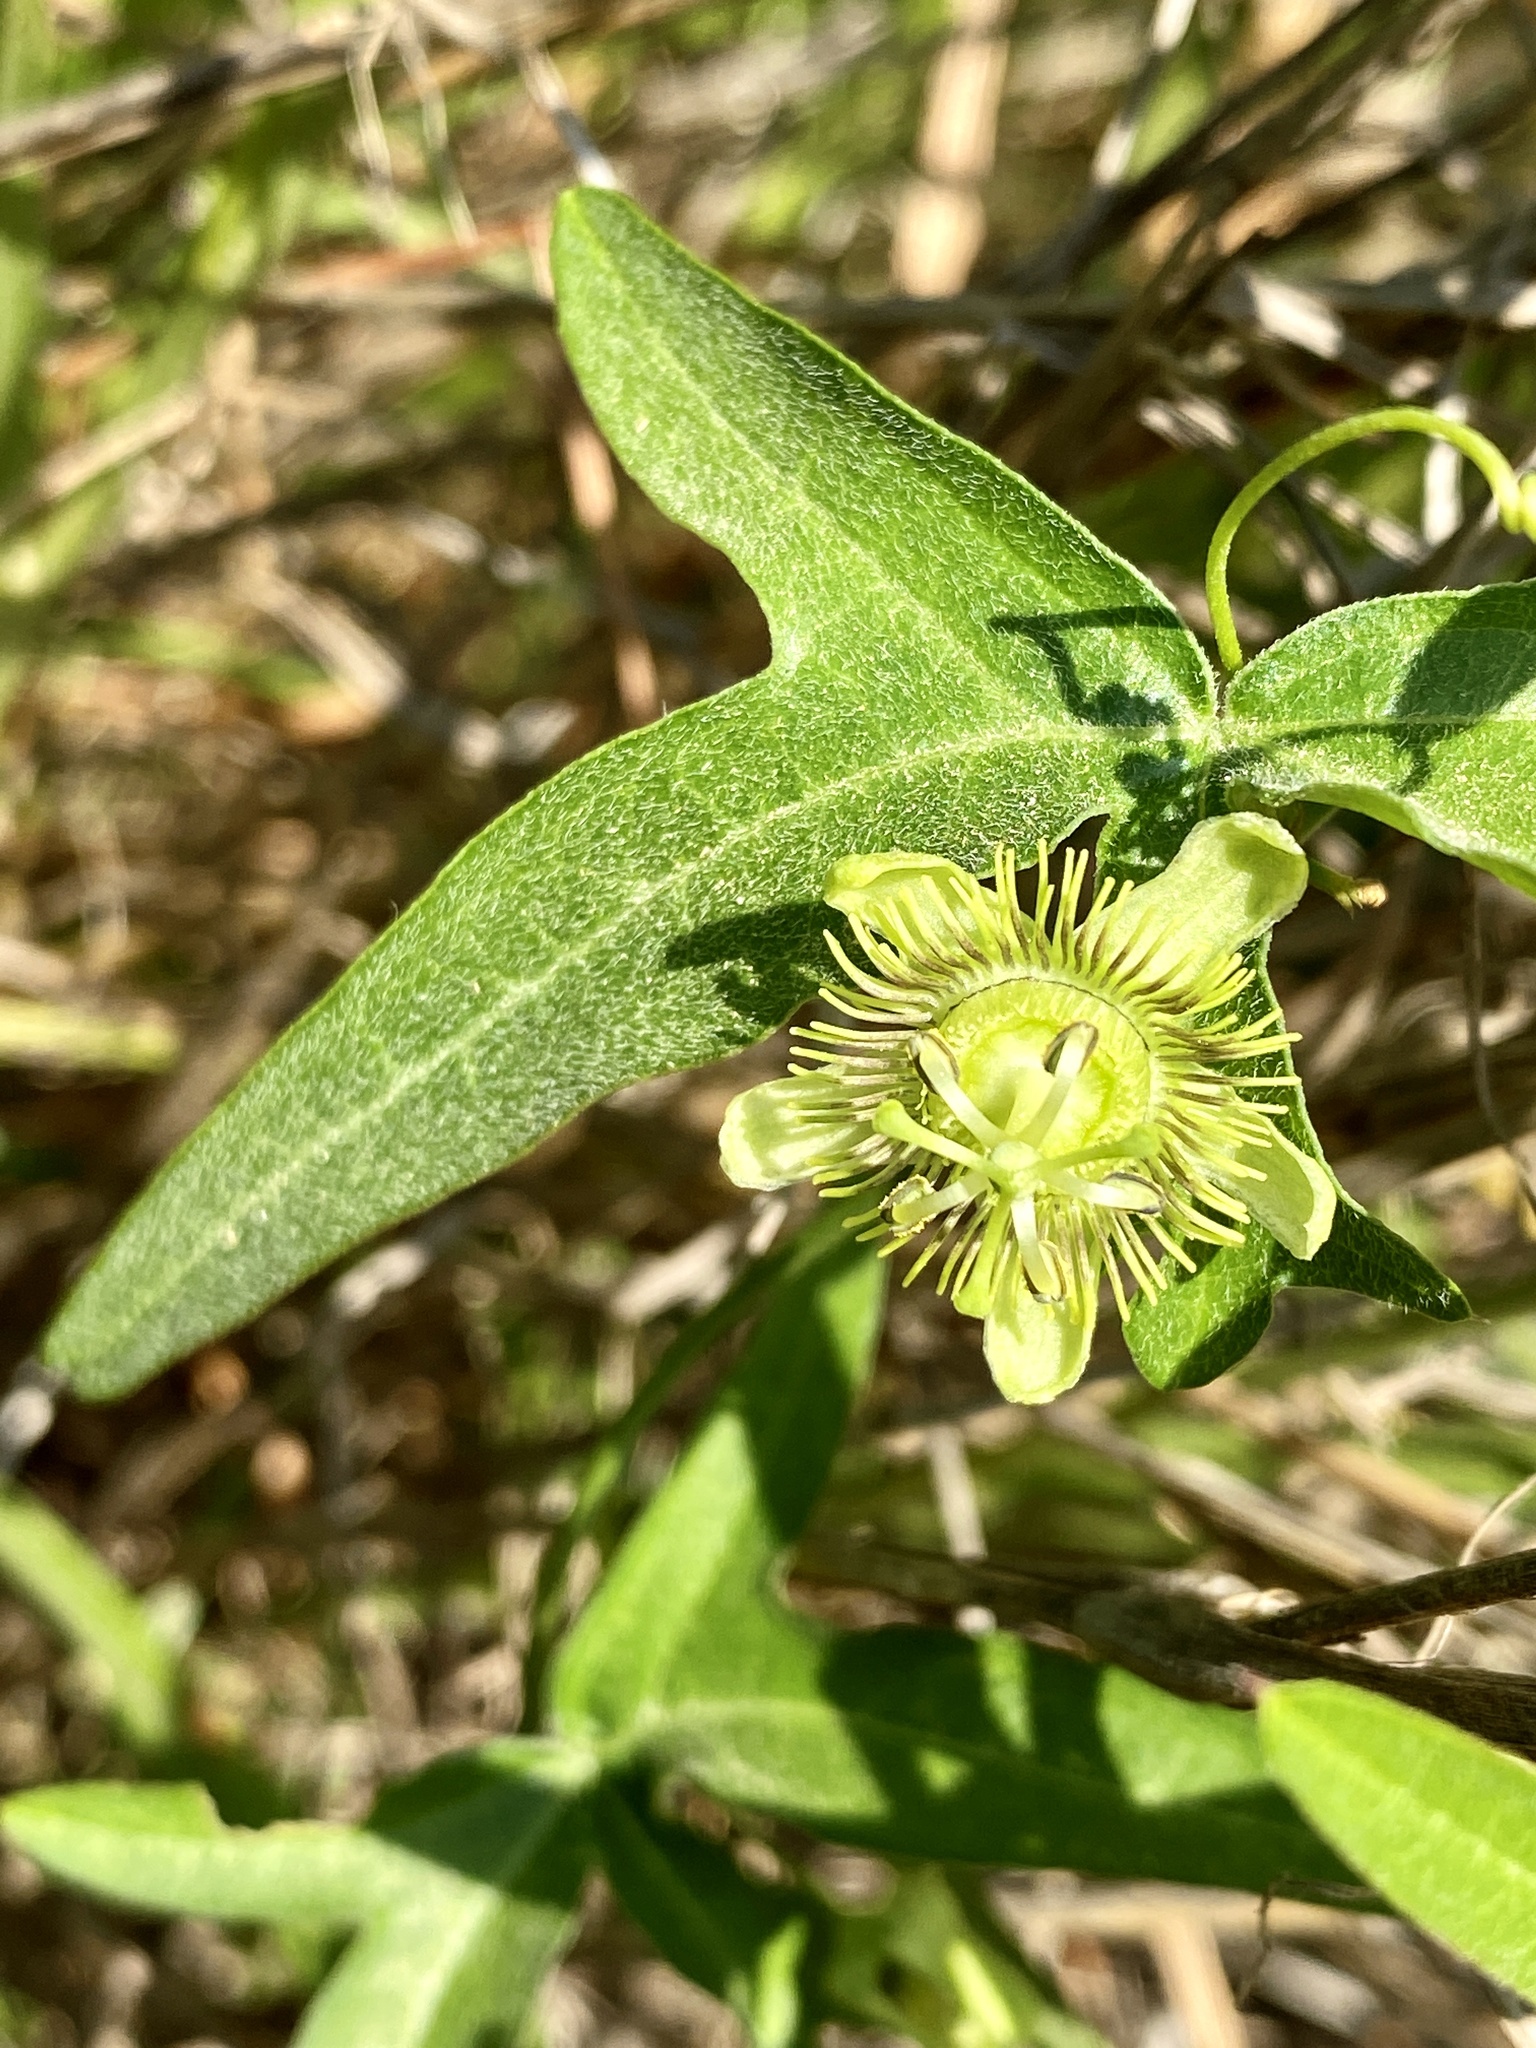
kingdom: Plantae
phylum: Tracheophyta
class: Magnoliopsida
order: Malpighiales
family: Passifloraceae
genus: Passiflora
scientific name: Passiflora tenuiloba
